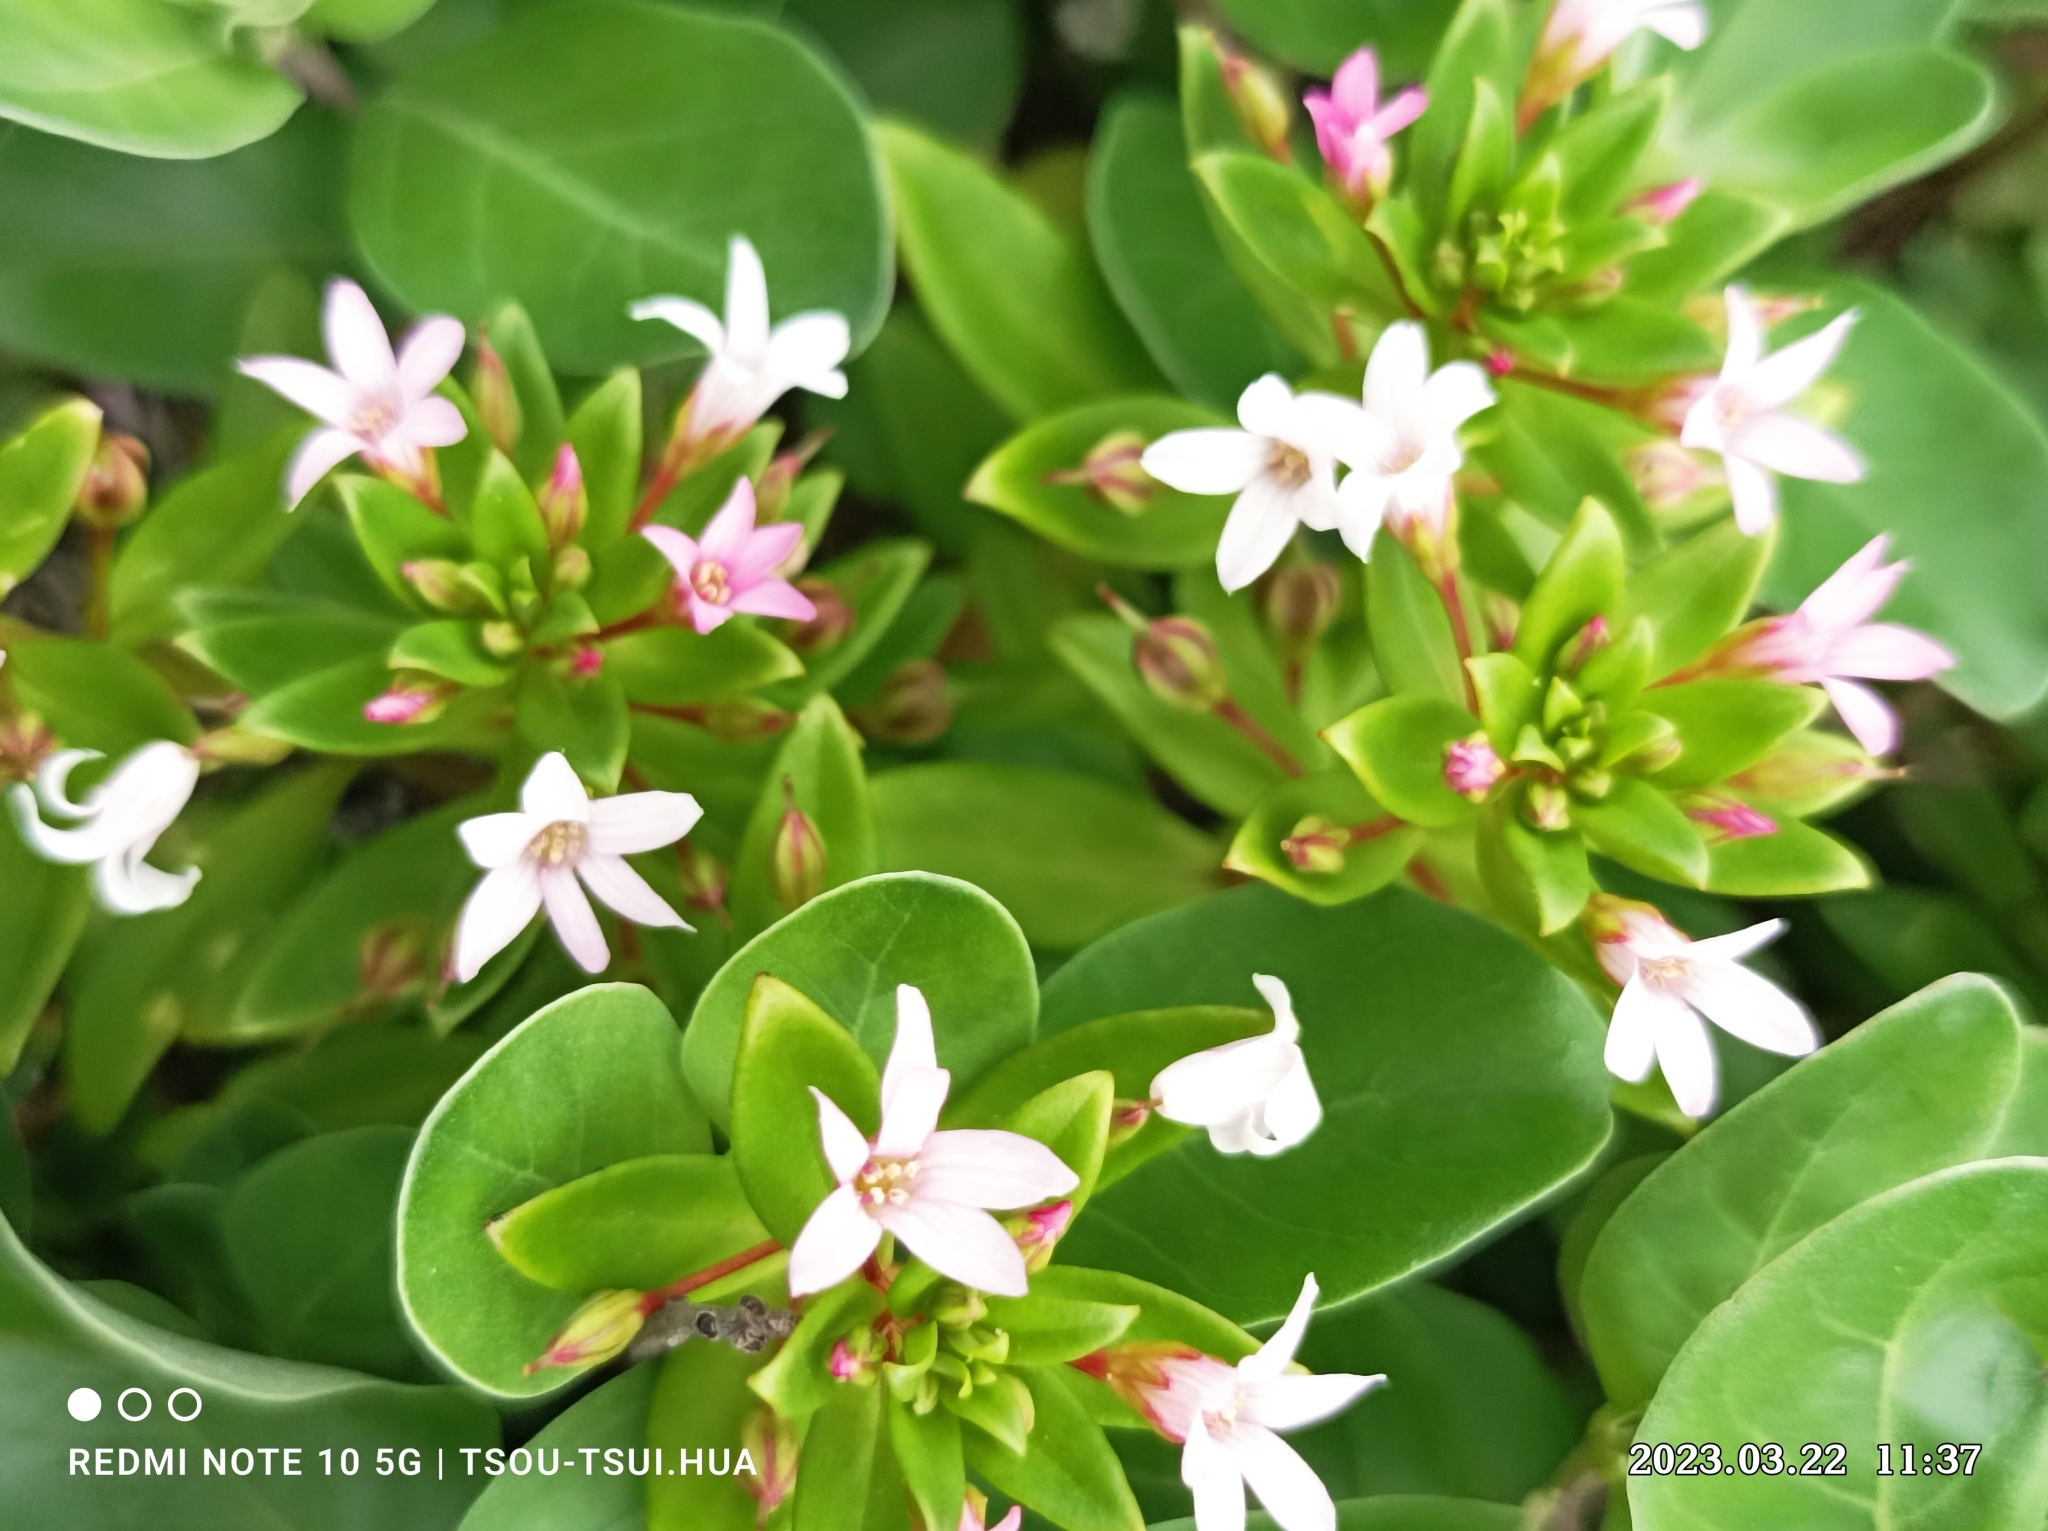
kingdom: Plantae
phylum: Tracheophyta
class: Magnoliopsida
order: Ericales
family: Primulaceae
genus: Lysimachia
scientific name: Lysimachia mauritiana
